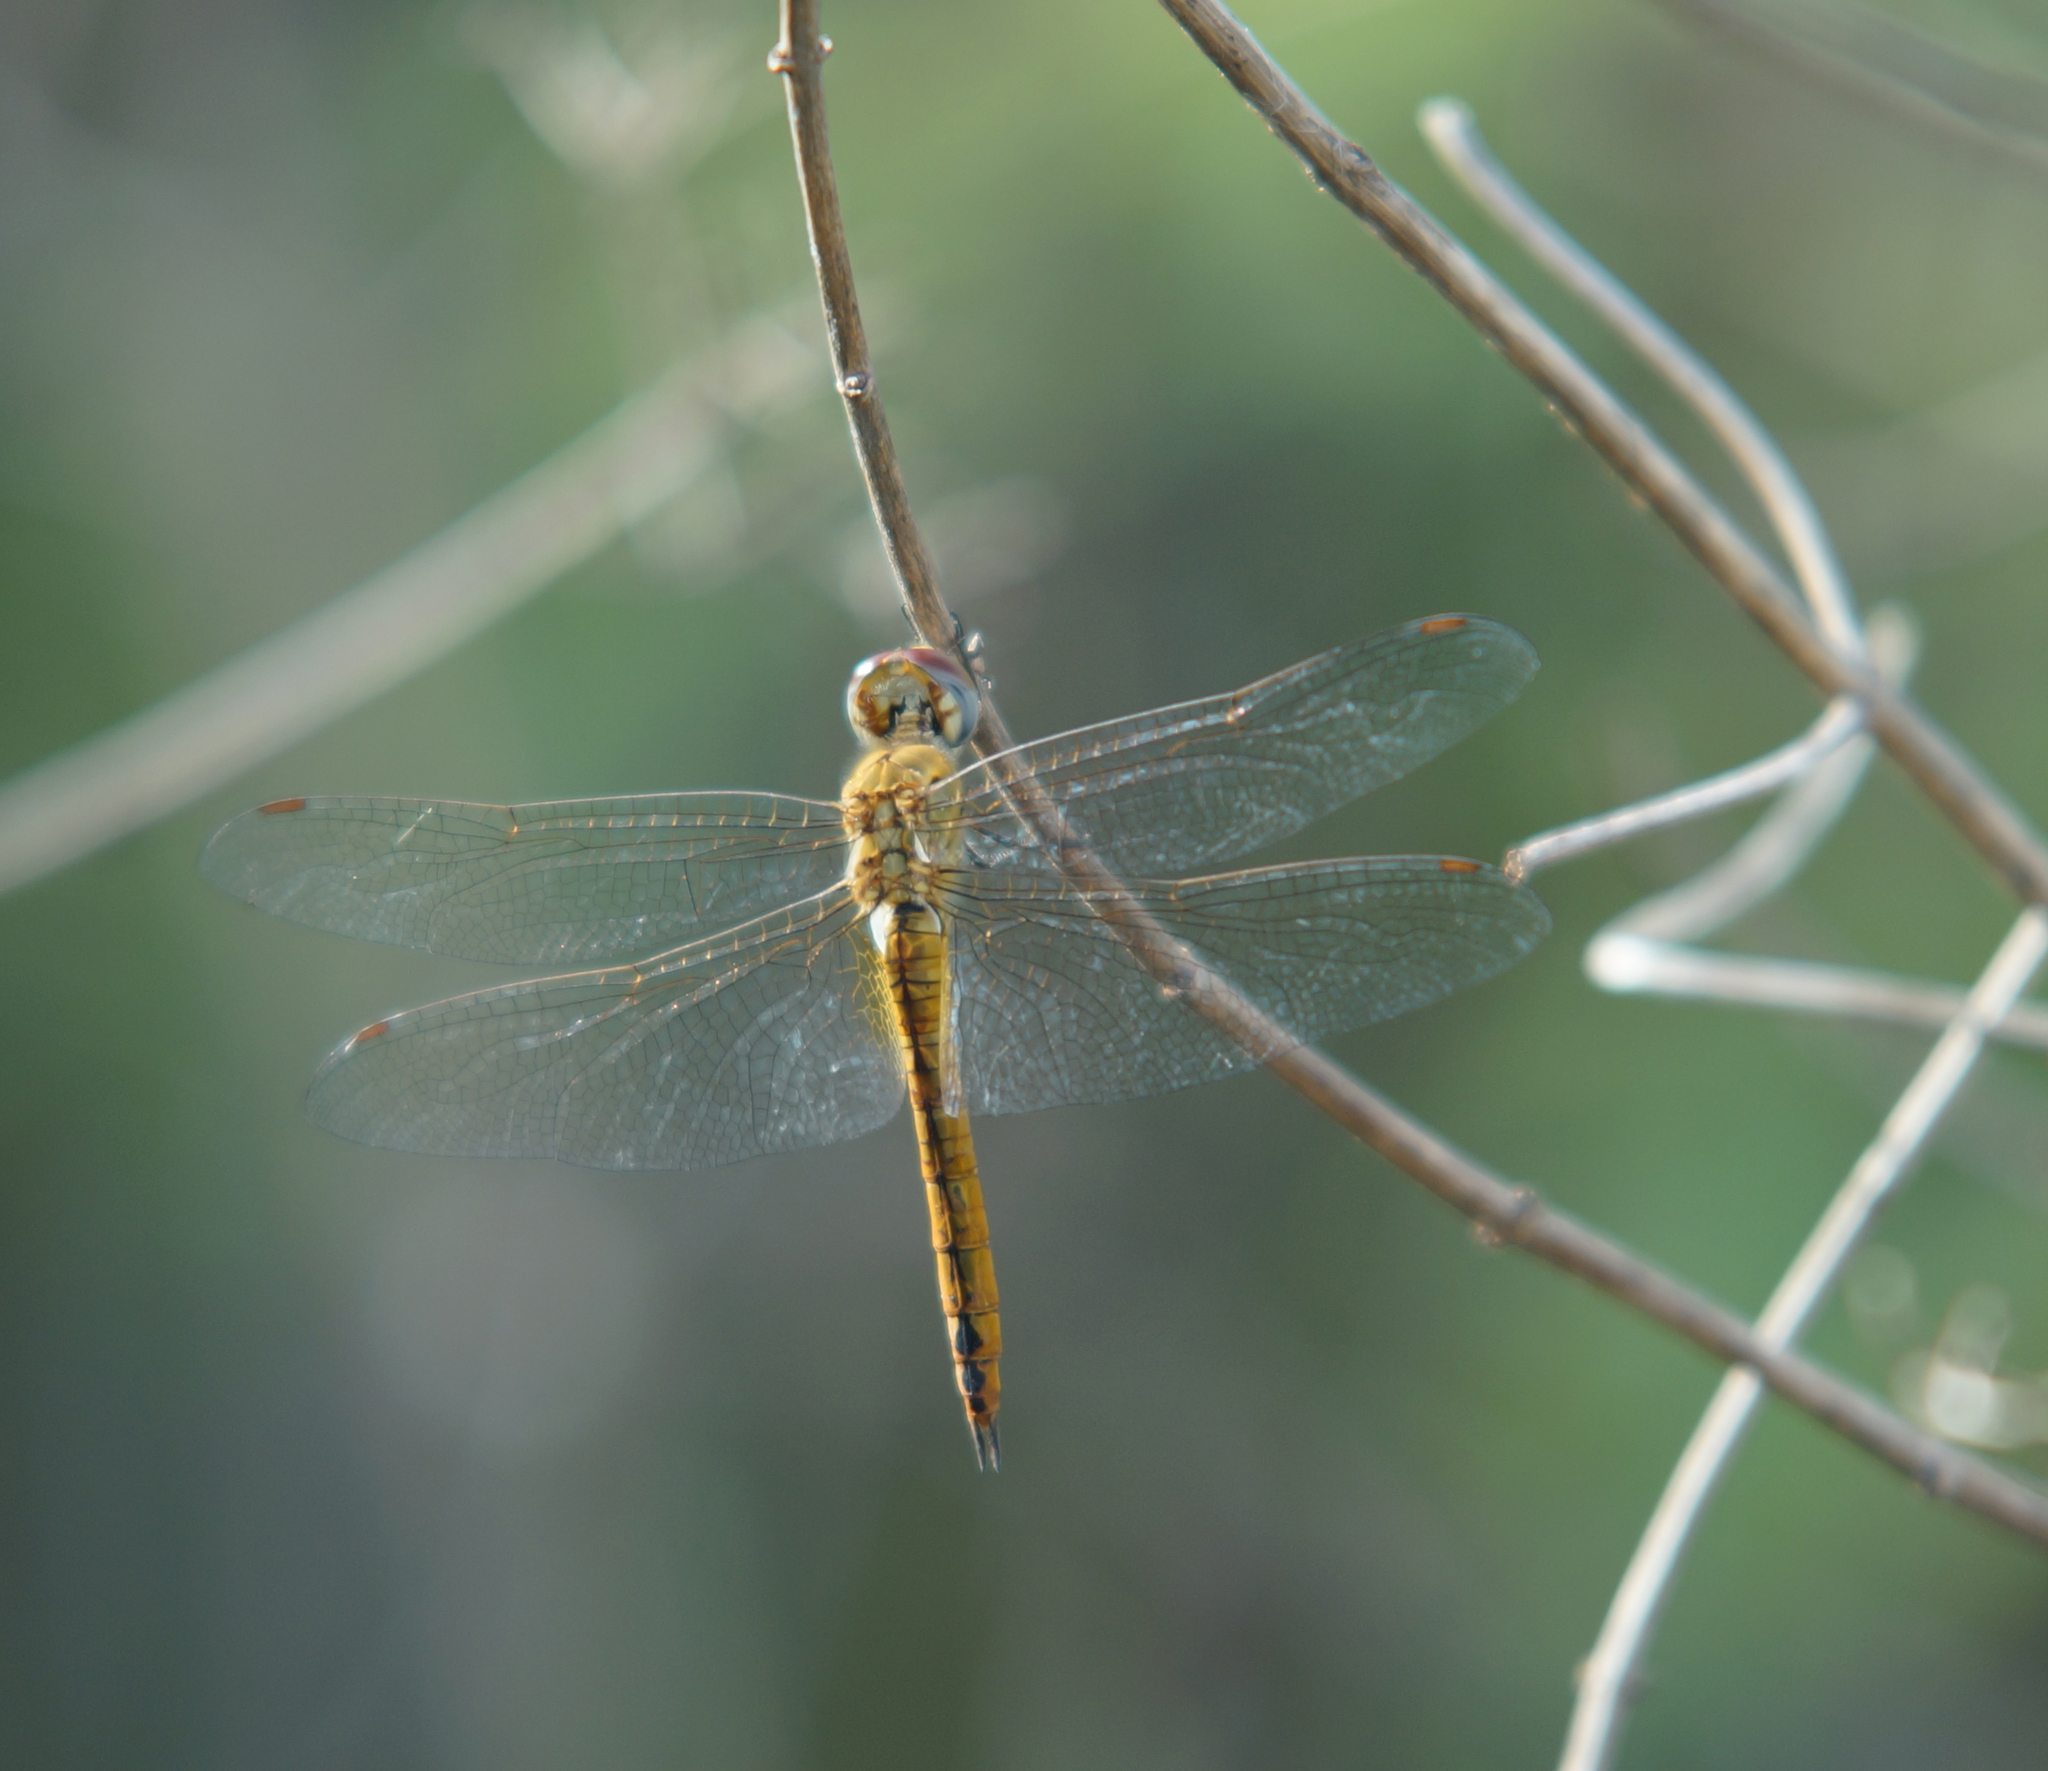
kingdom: Animalia
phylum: Arthropoda
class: Insecta
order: Odonata
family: Libellulidae
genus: Pantala
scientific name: Pantala flavescens
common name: Wandering glider
